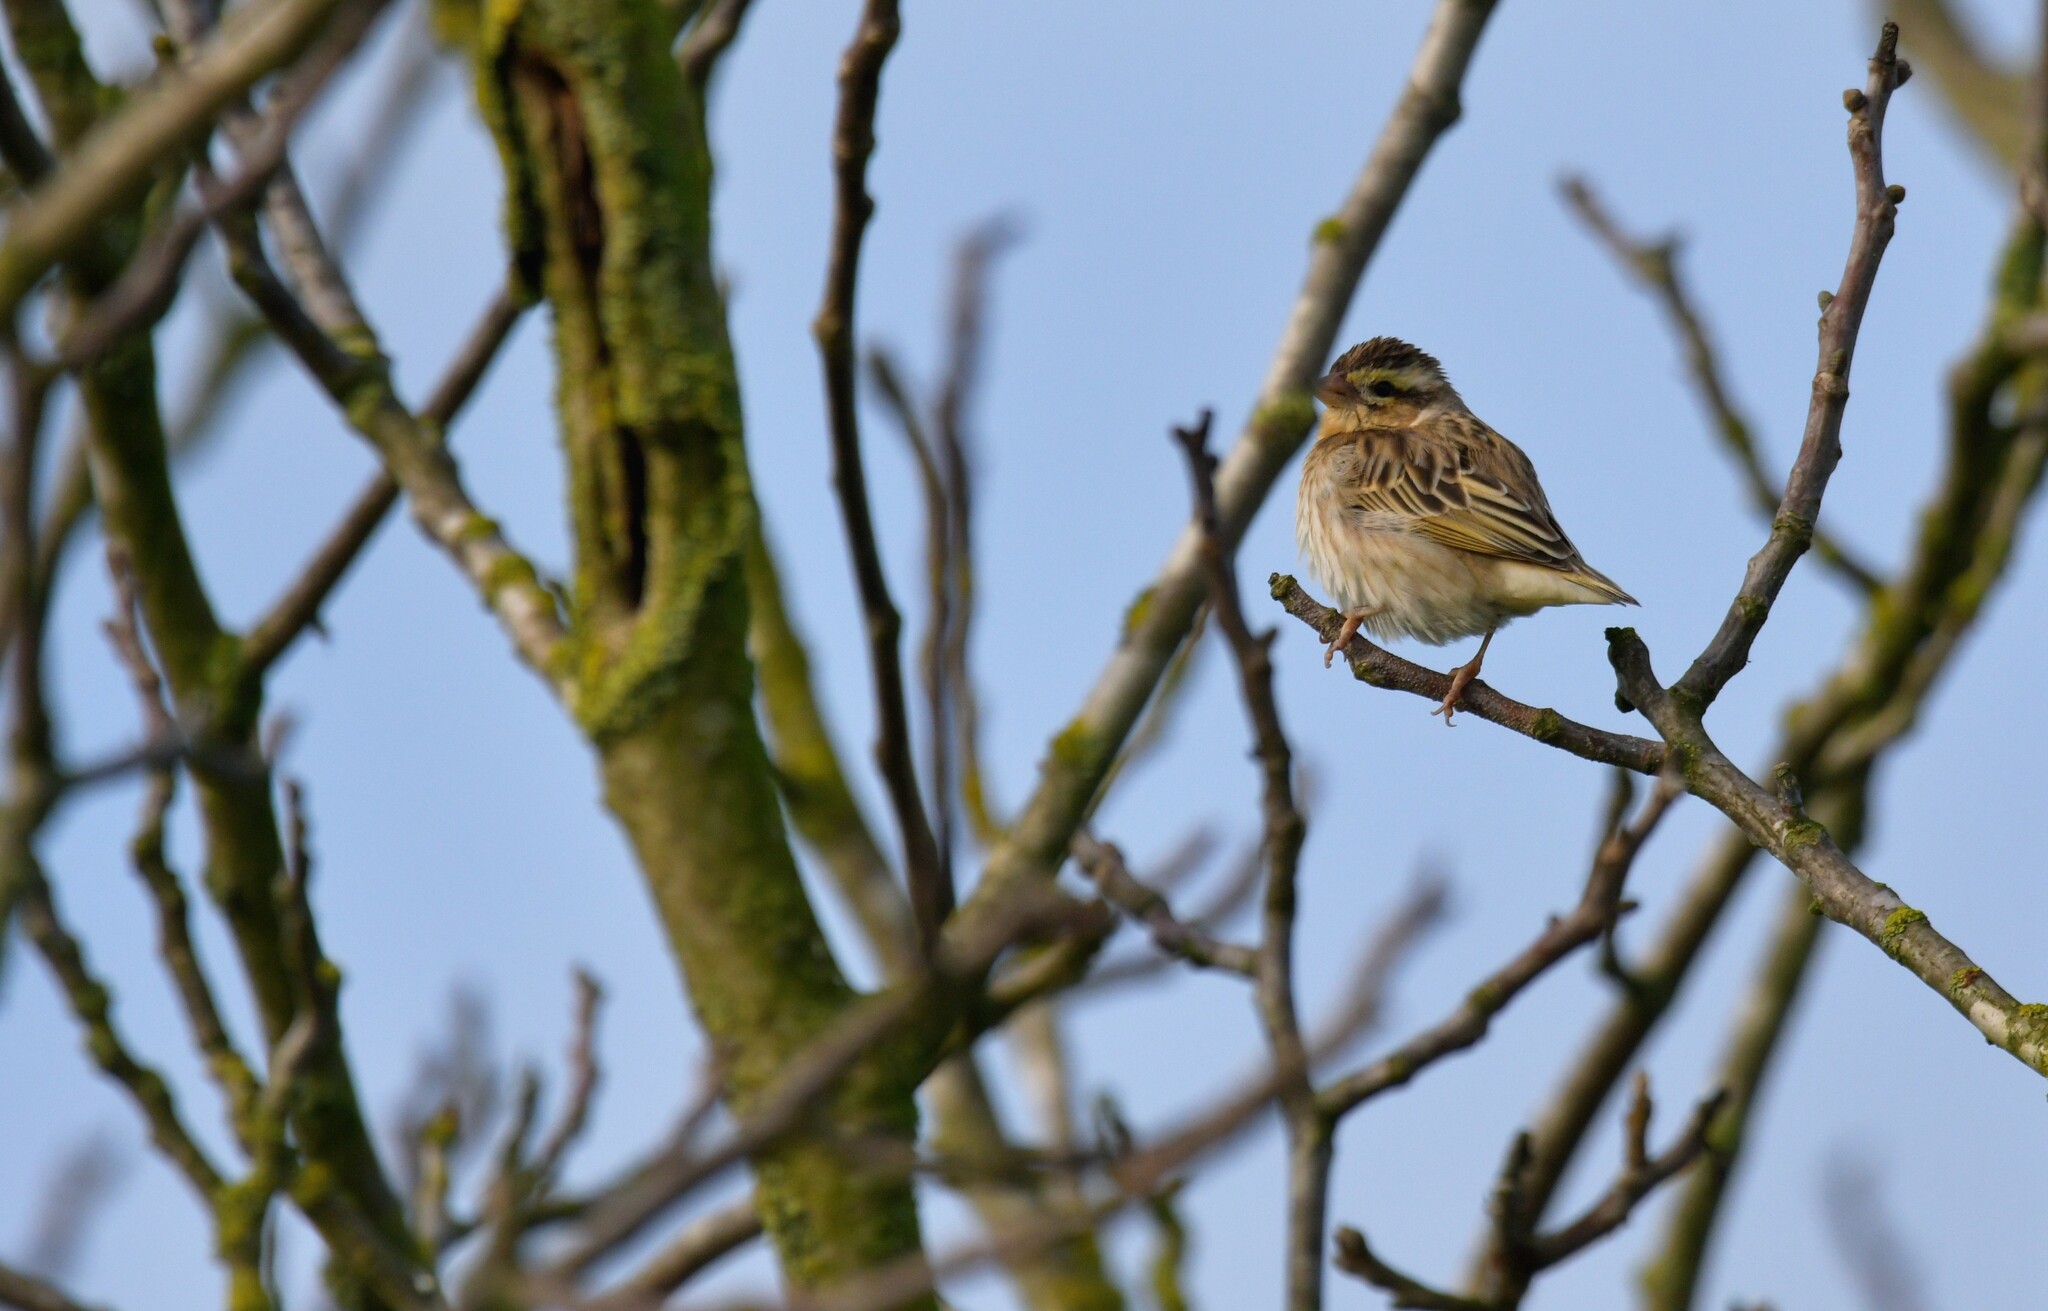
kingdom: Animalia
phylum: Chordata
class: Aves
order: Passeriformes
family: Ploceidae
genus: Euplectes
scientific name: Euplectes afer
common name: Yellow-crowned bishop
